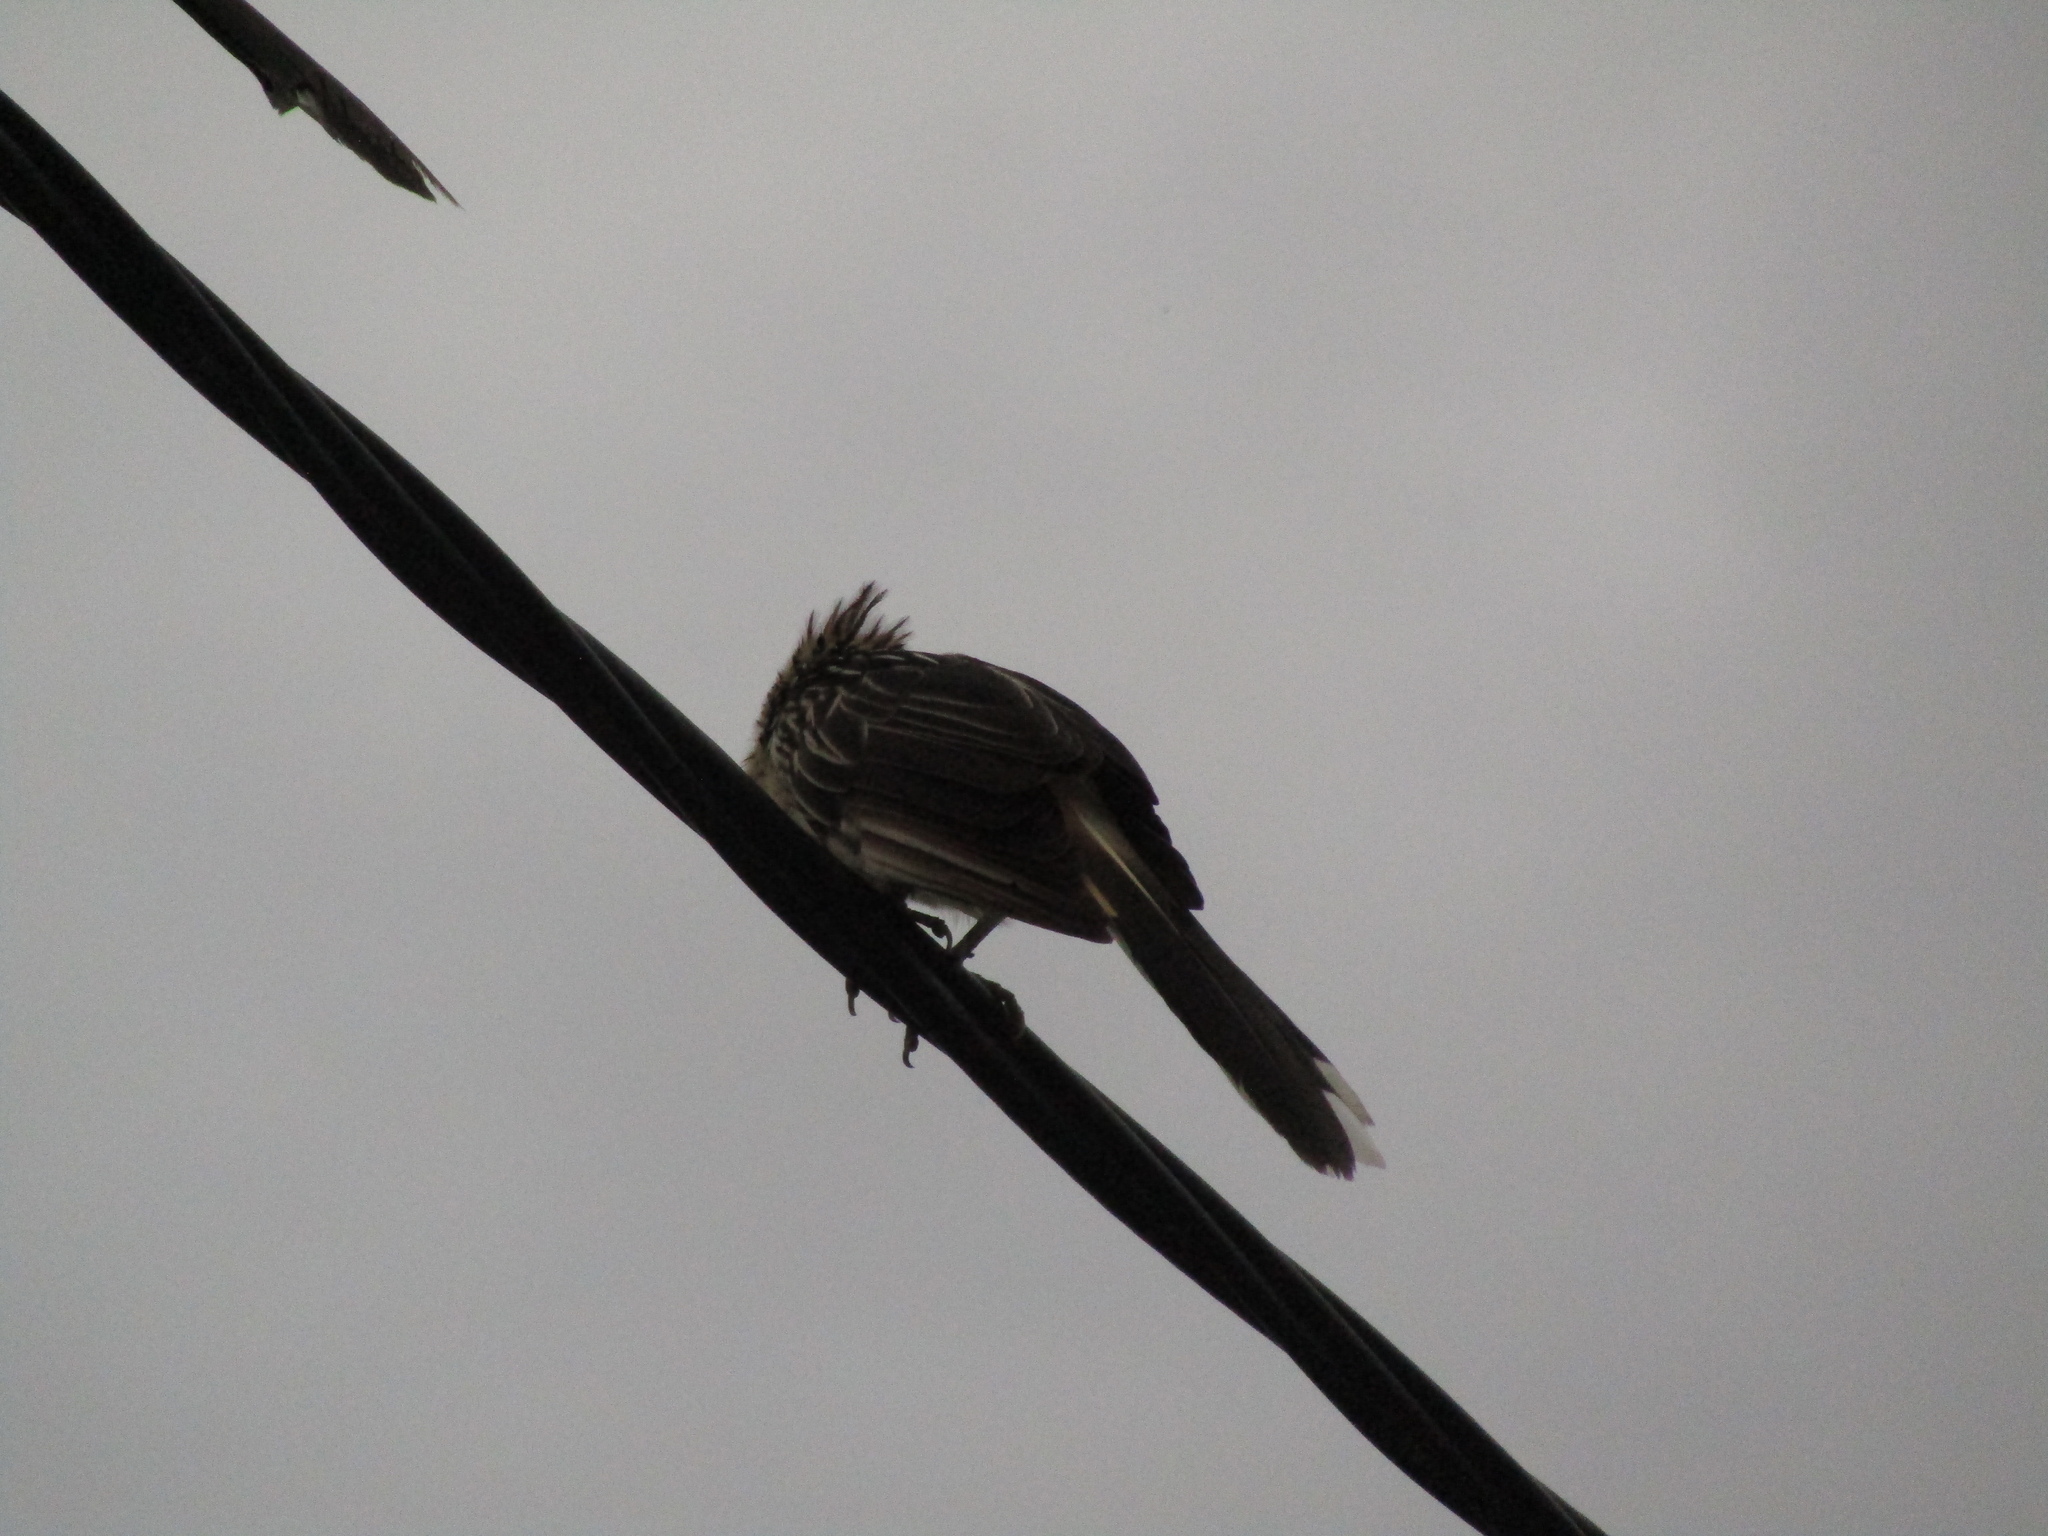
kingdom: Animalia
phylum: Chordata
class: Aves
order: Cuculiformes
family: Cuculidae
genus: Guira
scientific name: Guira guira
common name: Guira cuckoo
